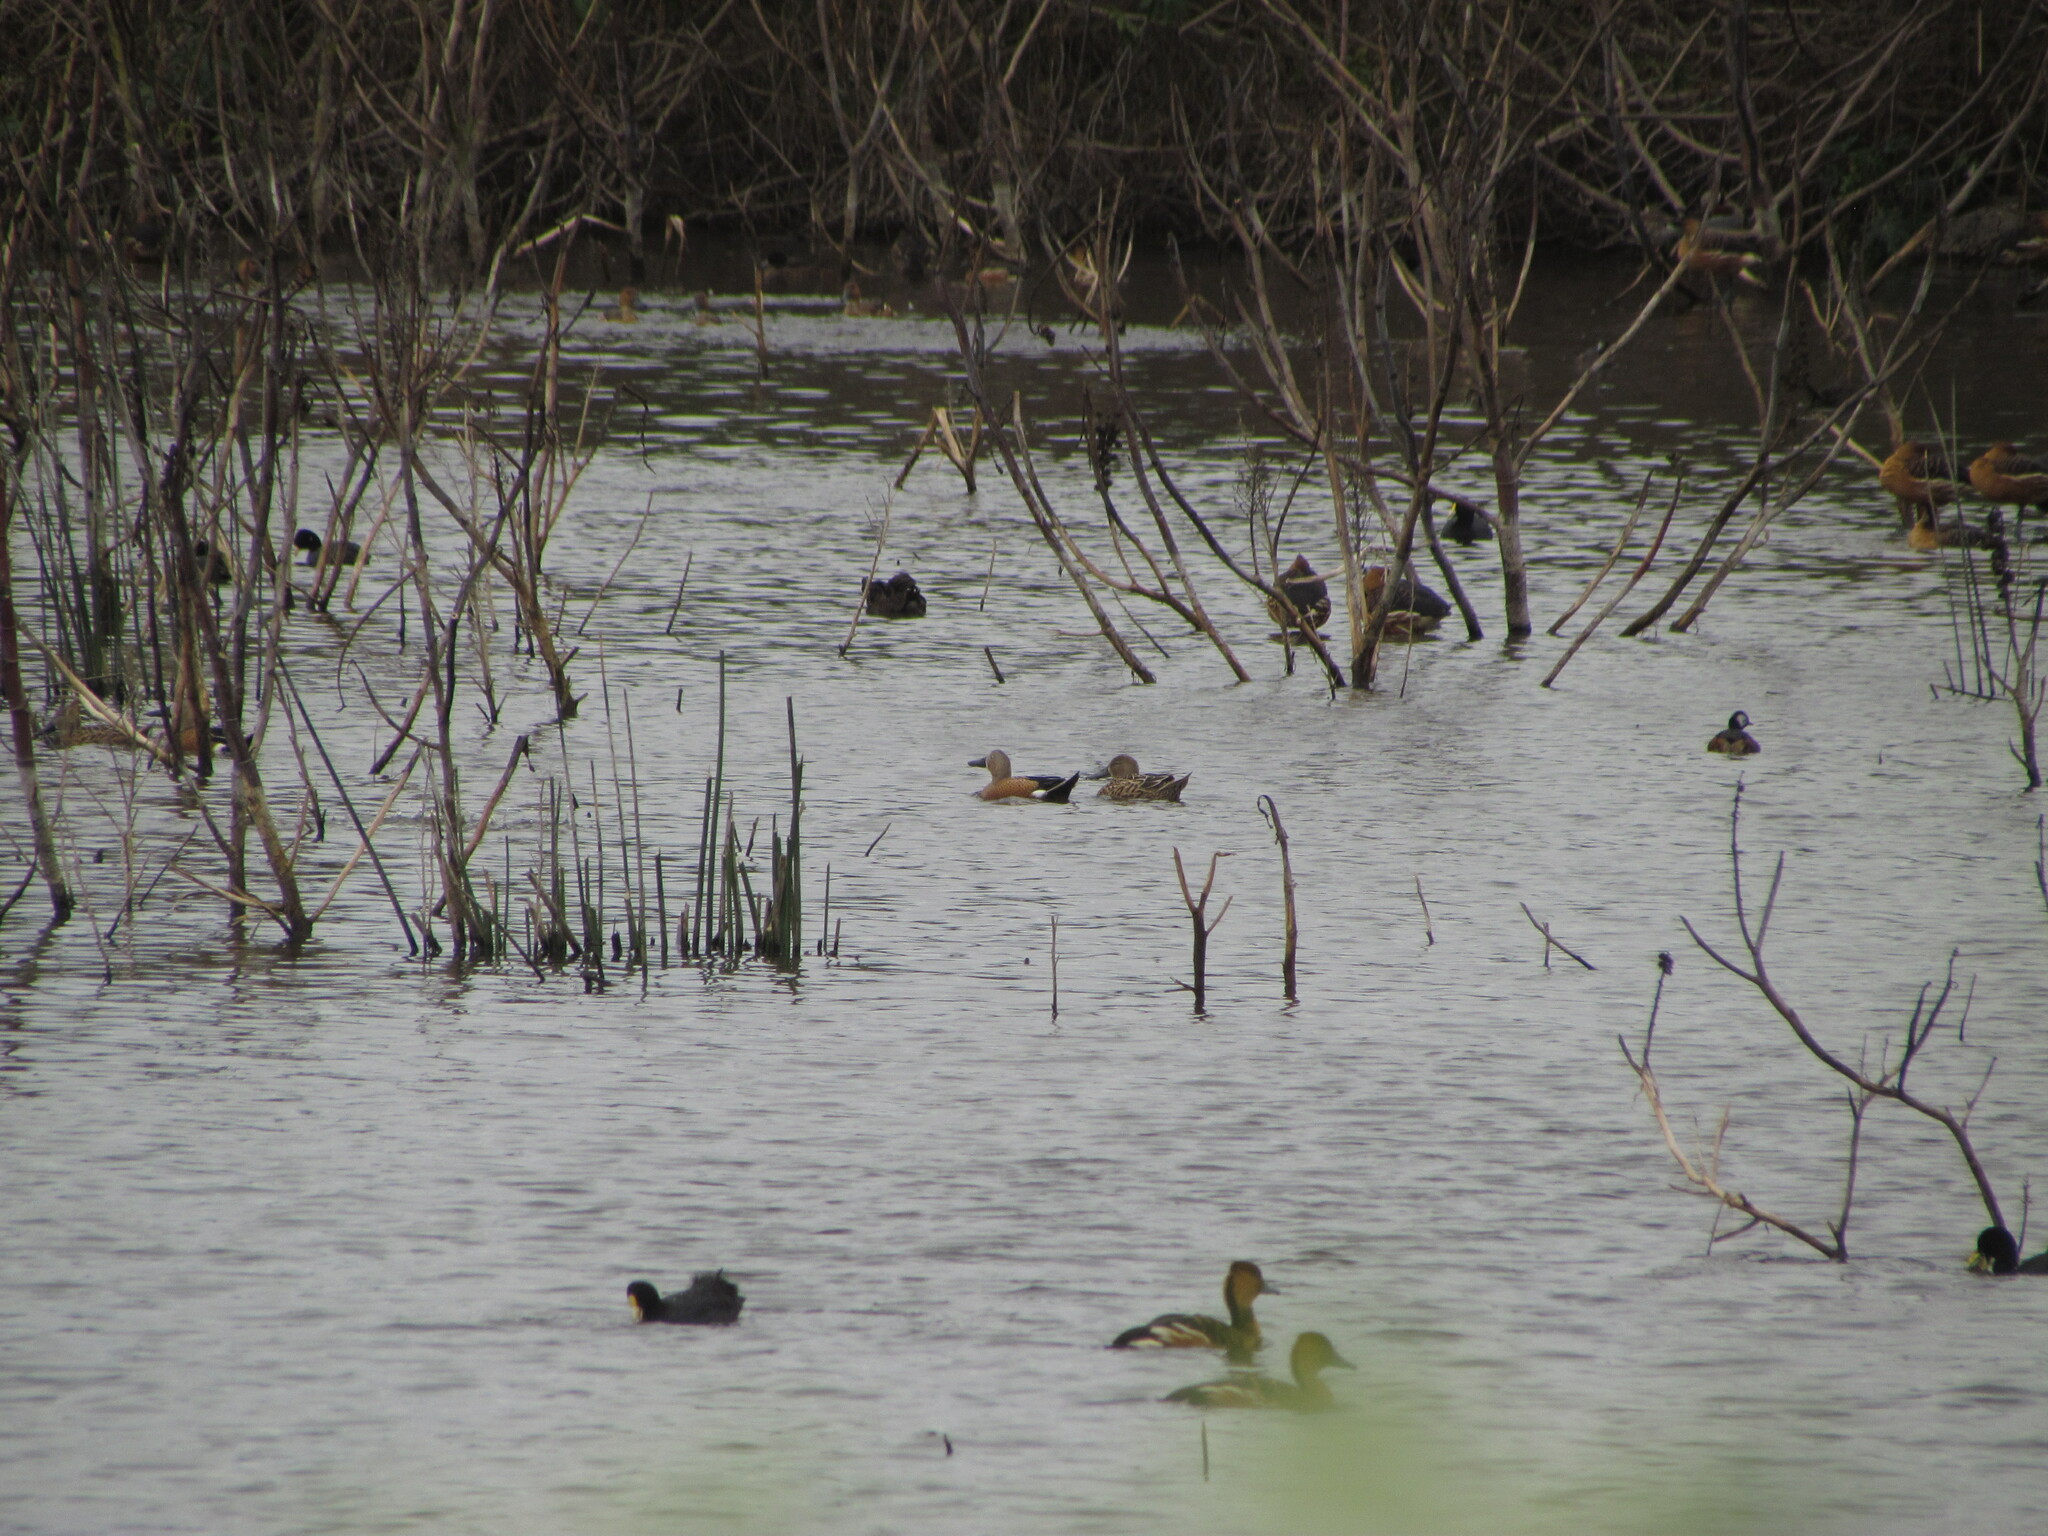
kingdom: Animalia
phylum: Chordata
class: Aves
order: Anseriformes
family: Anatidae
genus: Spatula
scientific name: Spatula platalea
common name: Red shoveler
